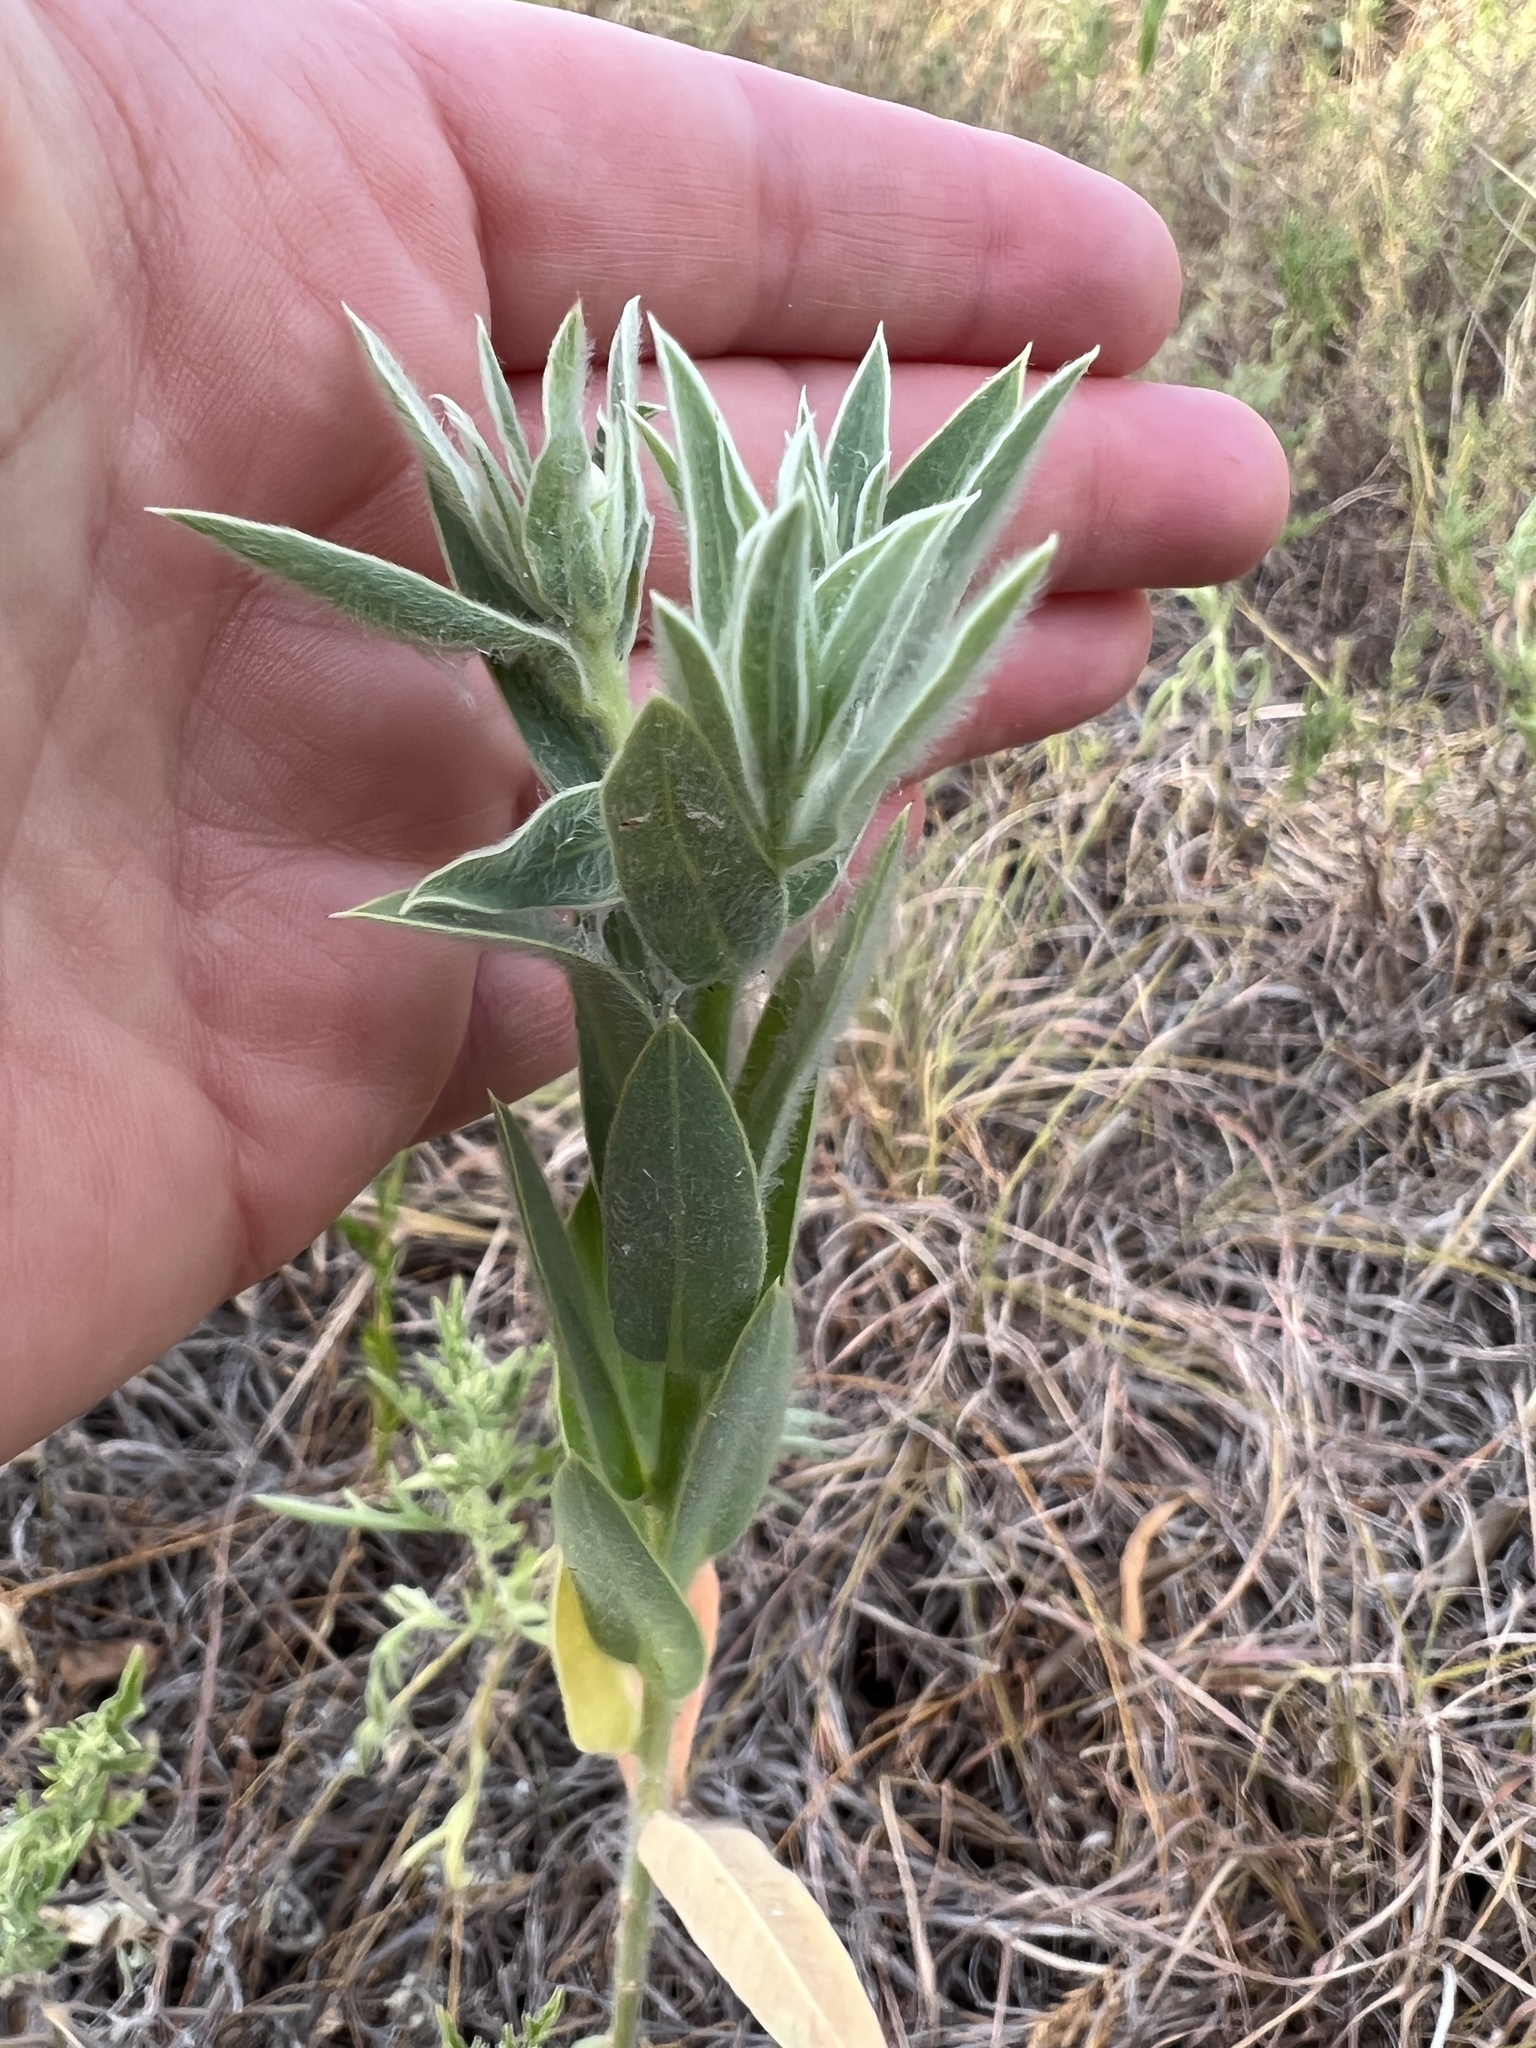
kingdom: Plantae
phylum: Tracheophyta
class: Magnoliopsida
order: Malpighiales
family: Euphorbiaceae
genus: Euphorbia
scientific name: Euphorbia bicolor
